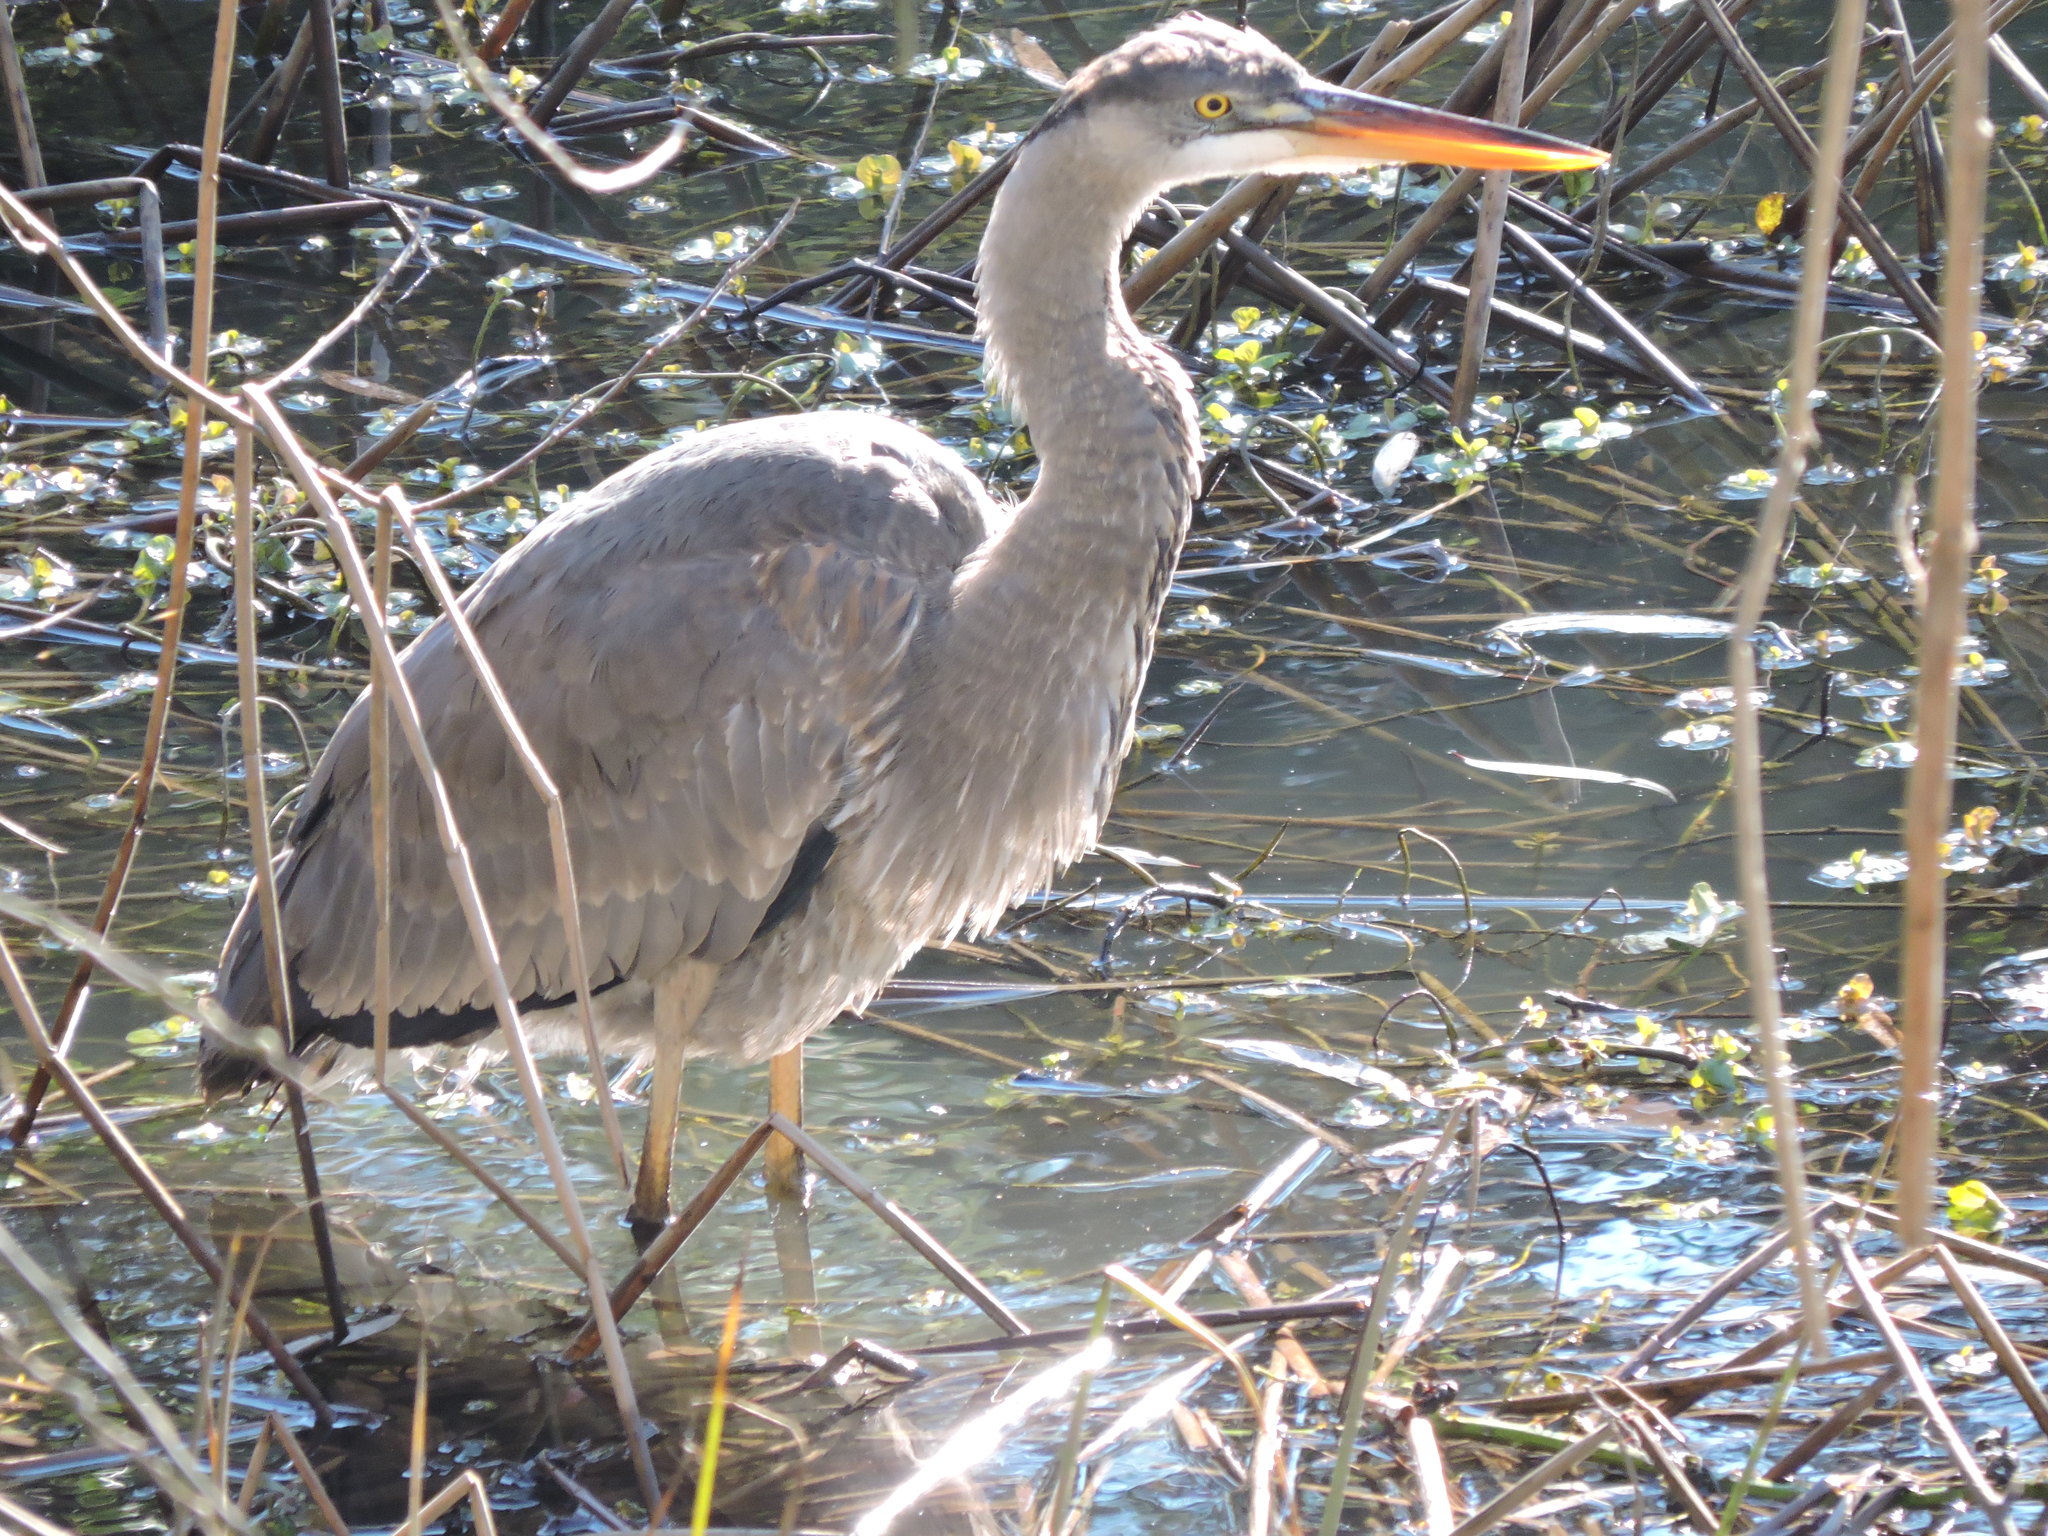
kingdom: Animalia
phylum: Chordata
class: Aves
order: Pelecaniformes
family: Ardeidae
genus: Ardea
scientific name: Ardea herodias
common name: Great blue heron
